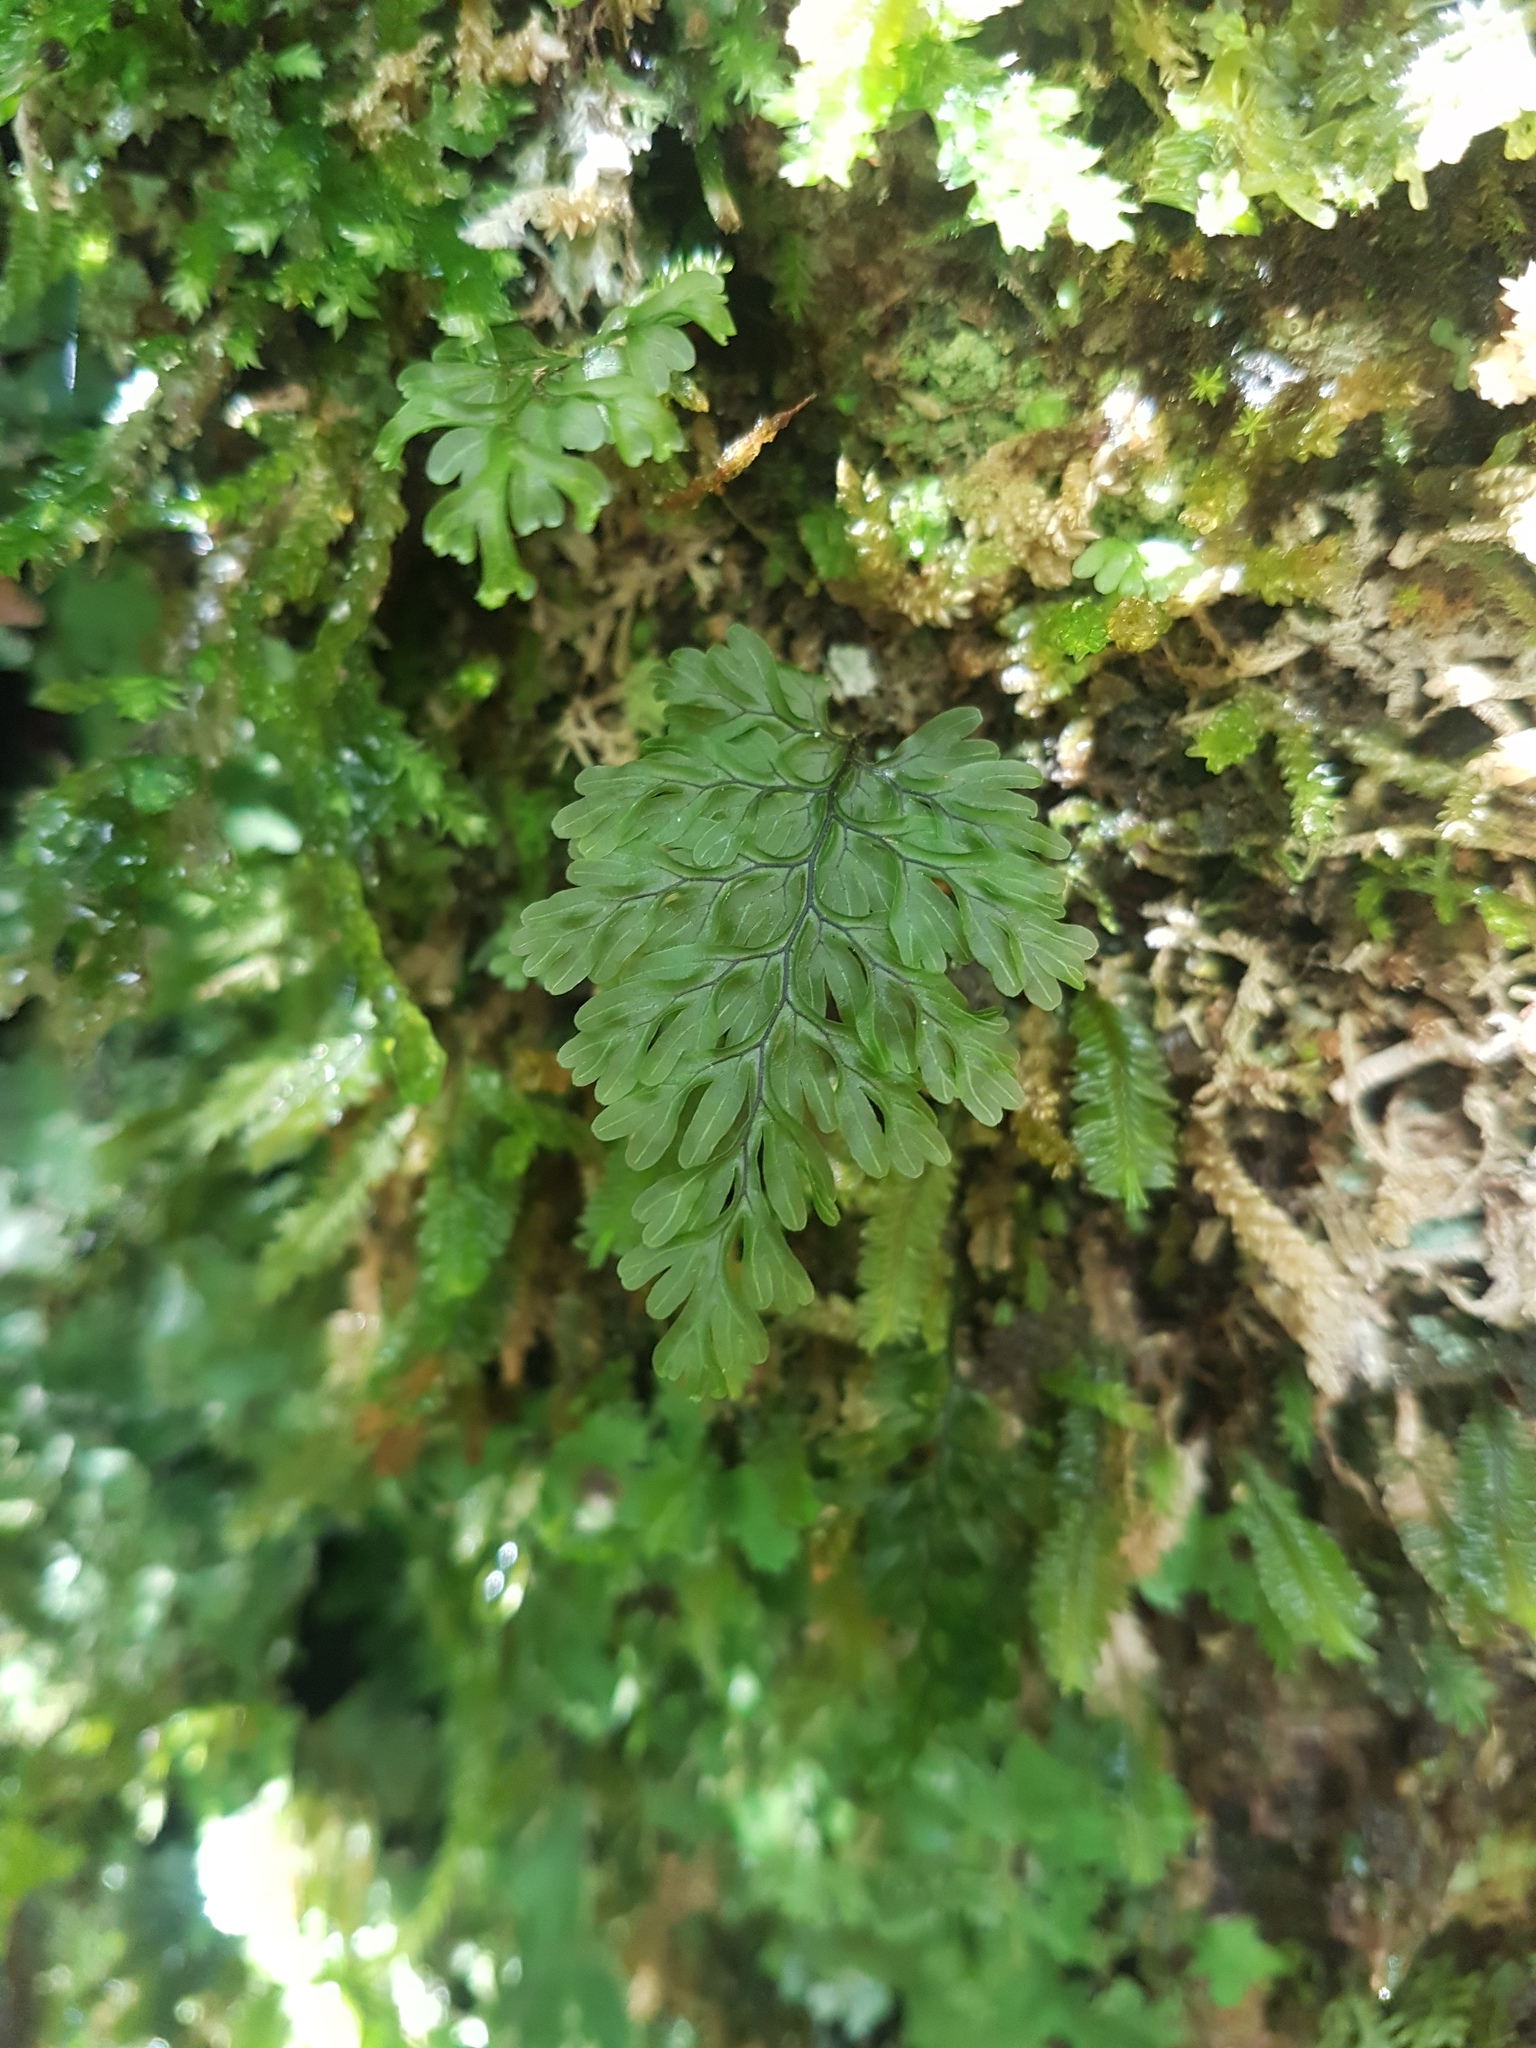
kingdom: Plantae
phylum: Tracheophyta
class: Polypodiopsida
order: Hymenophyllales
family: Hymenophyllaceae
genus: Hymenophyllum
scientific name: Hymenophyllum sanguinolentum
